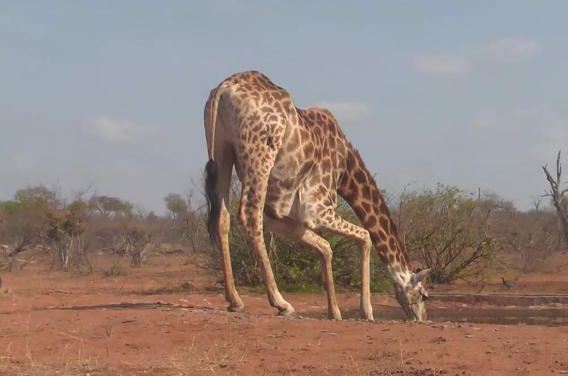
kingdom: Animalia
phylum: Chordata
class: Mammalia
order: Artiodactyla
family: Giraffidae
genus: Giraffa
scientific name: Giraffa giraffa
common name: Southern giraffe
